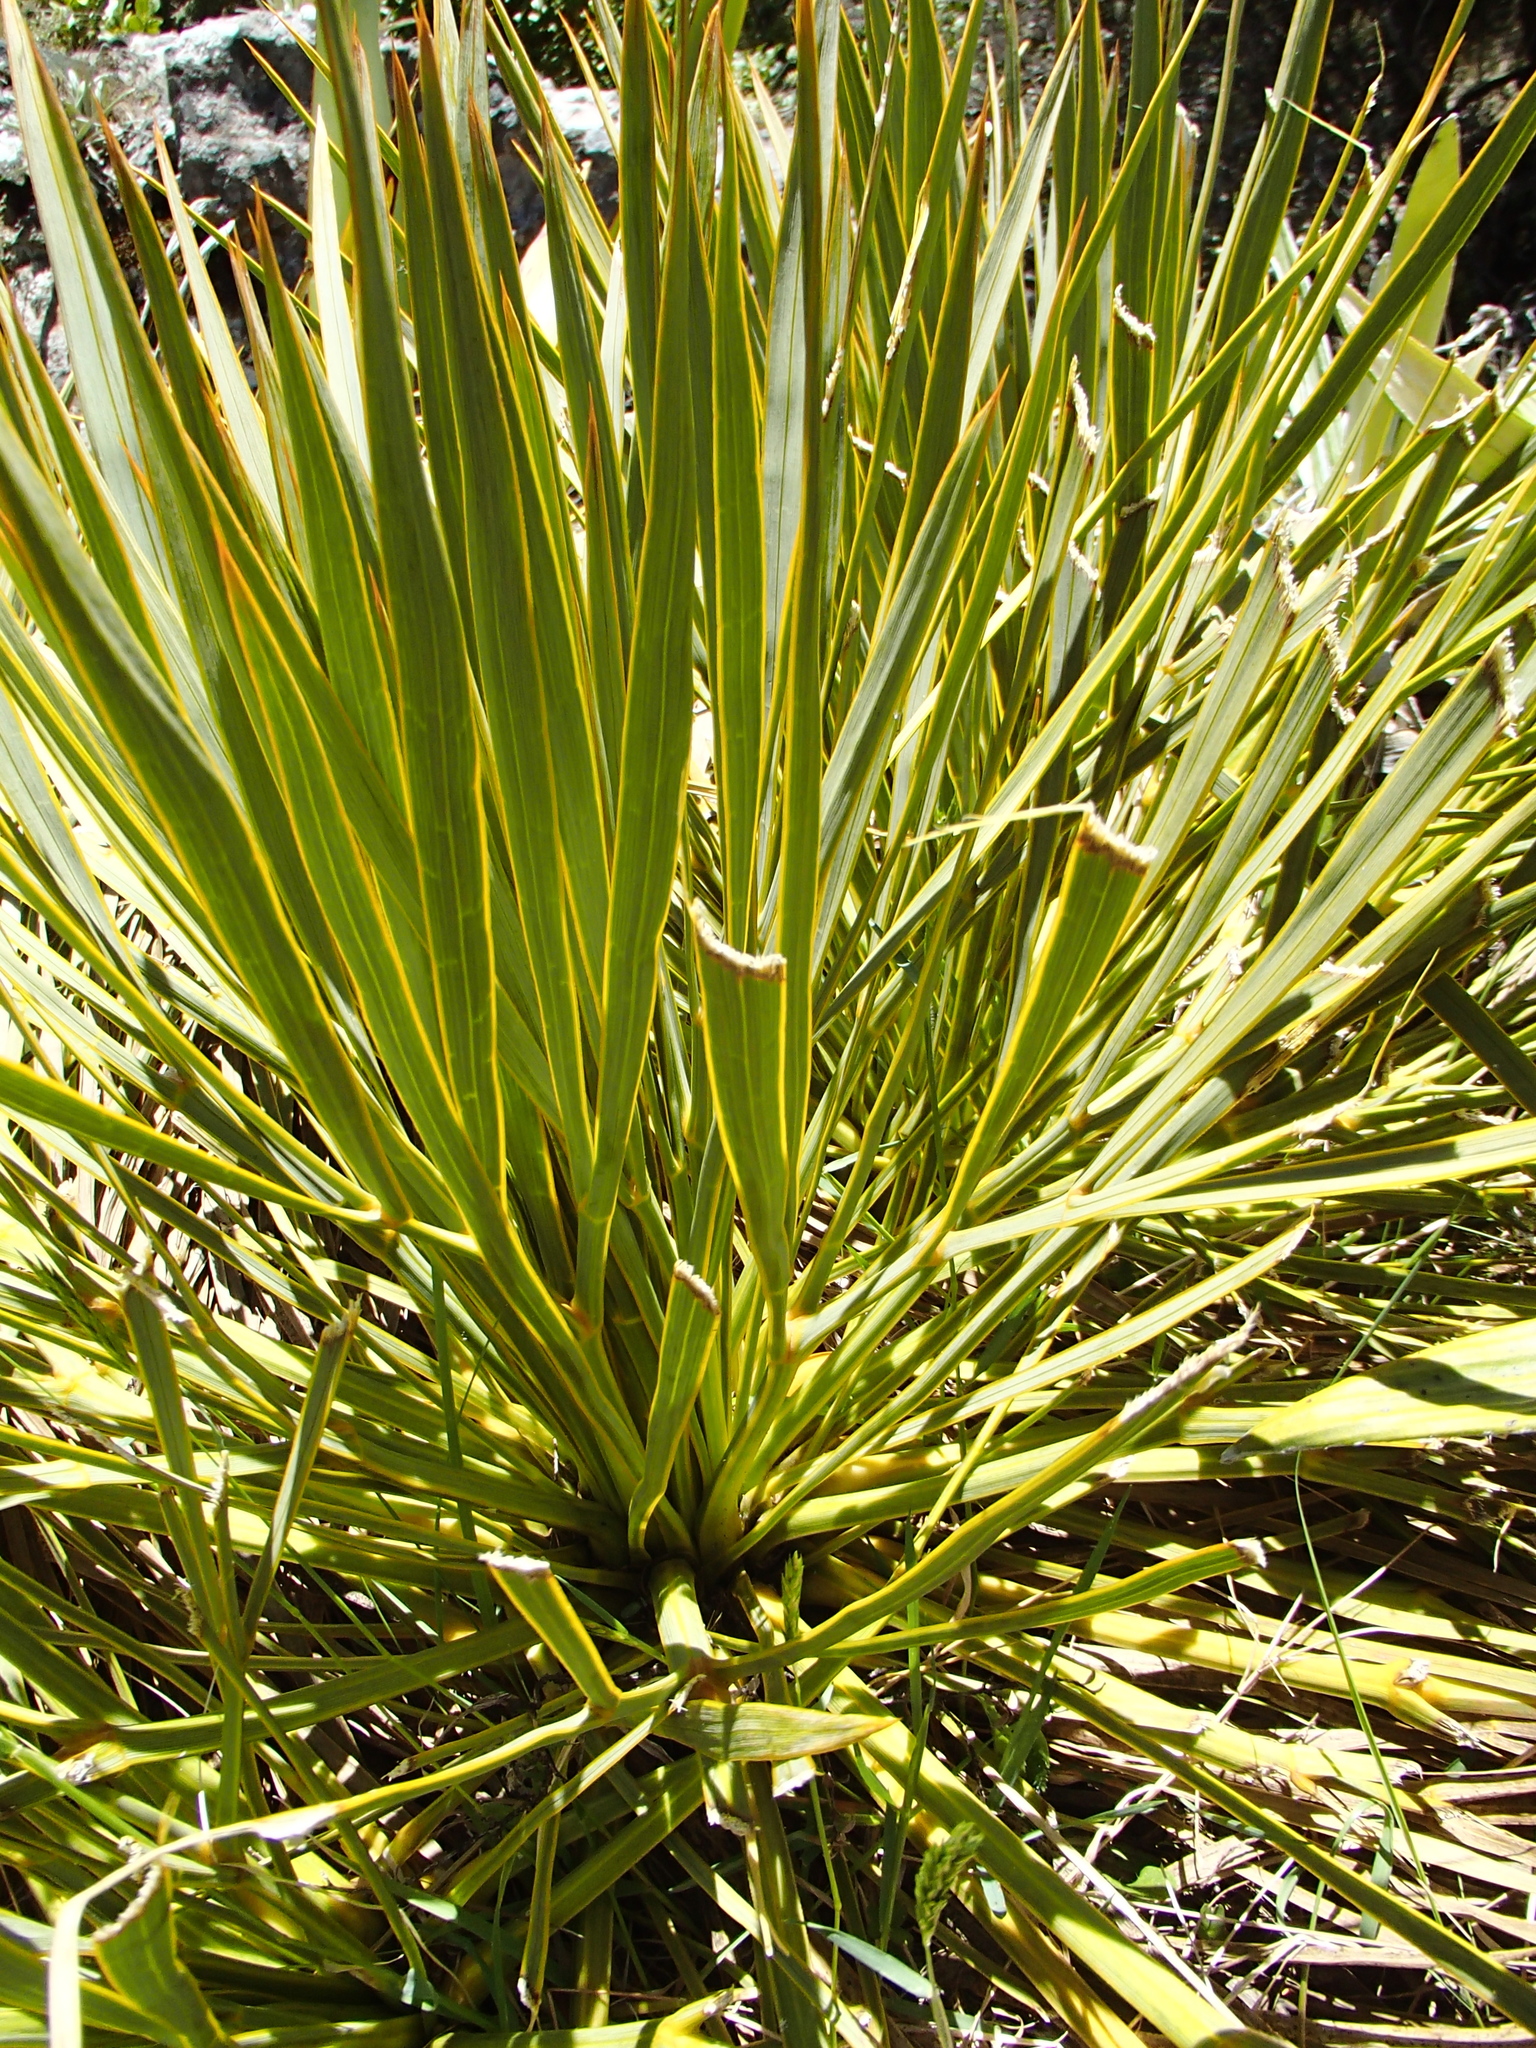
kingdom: Plantae
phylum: Tracheophyta
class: Magnoliopsida
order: Apiales
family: Apiaceae
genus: Aciphylla
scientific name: Aciphylla aurea
